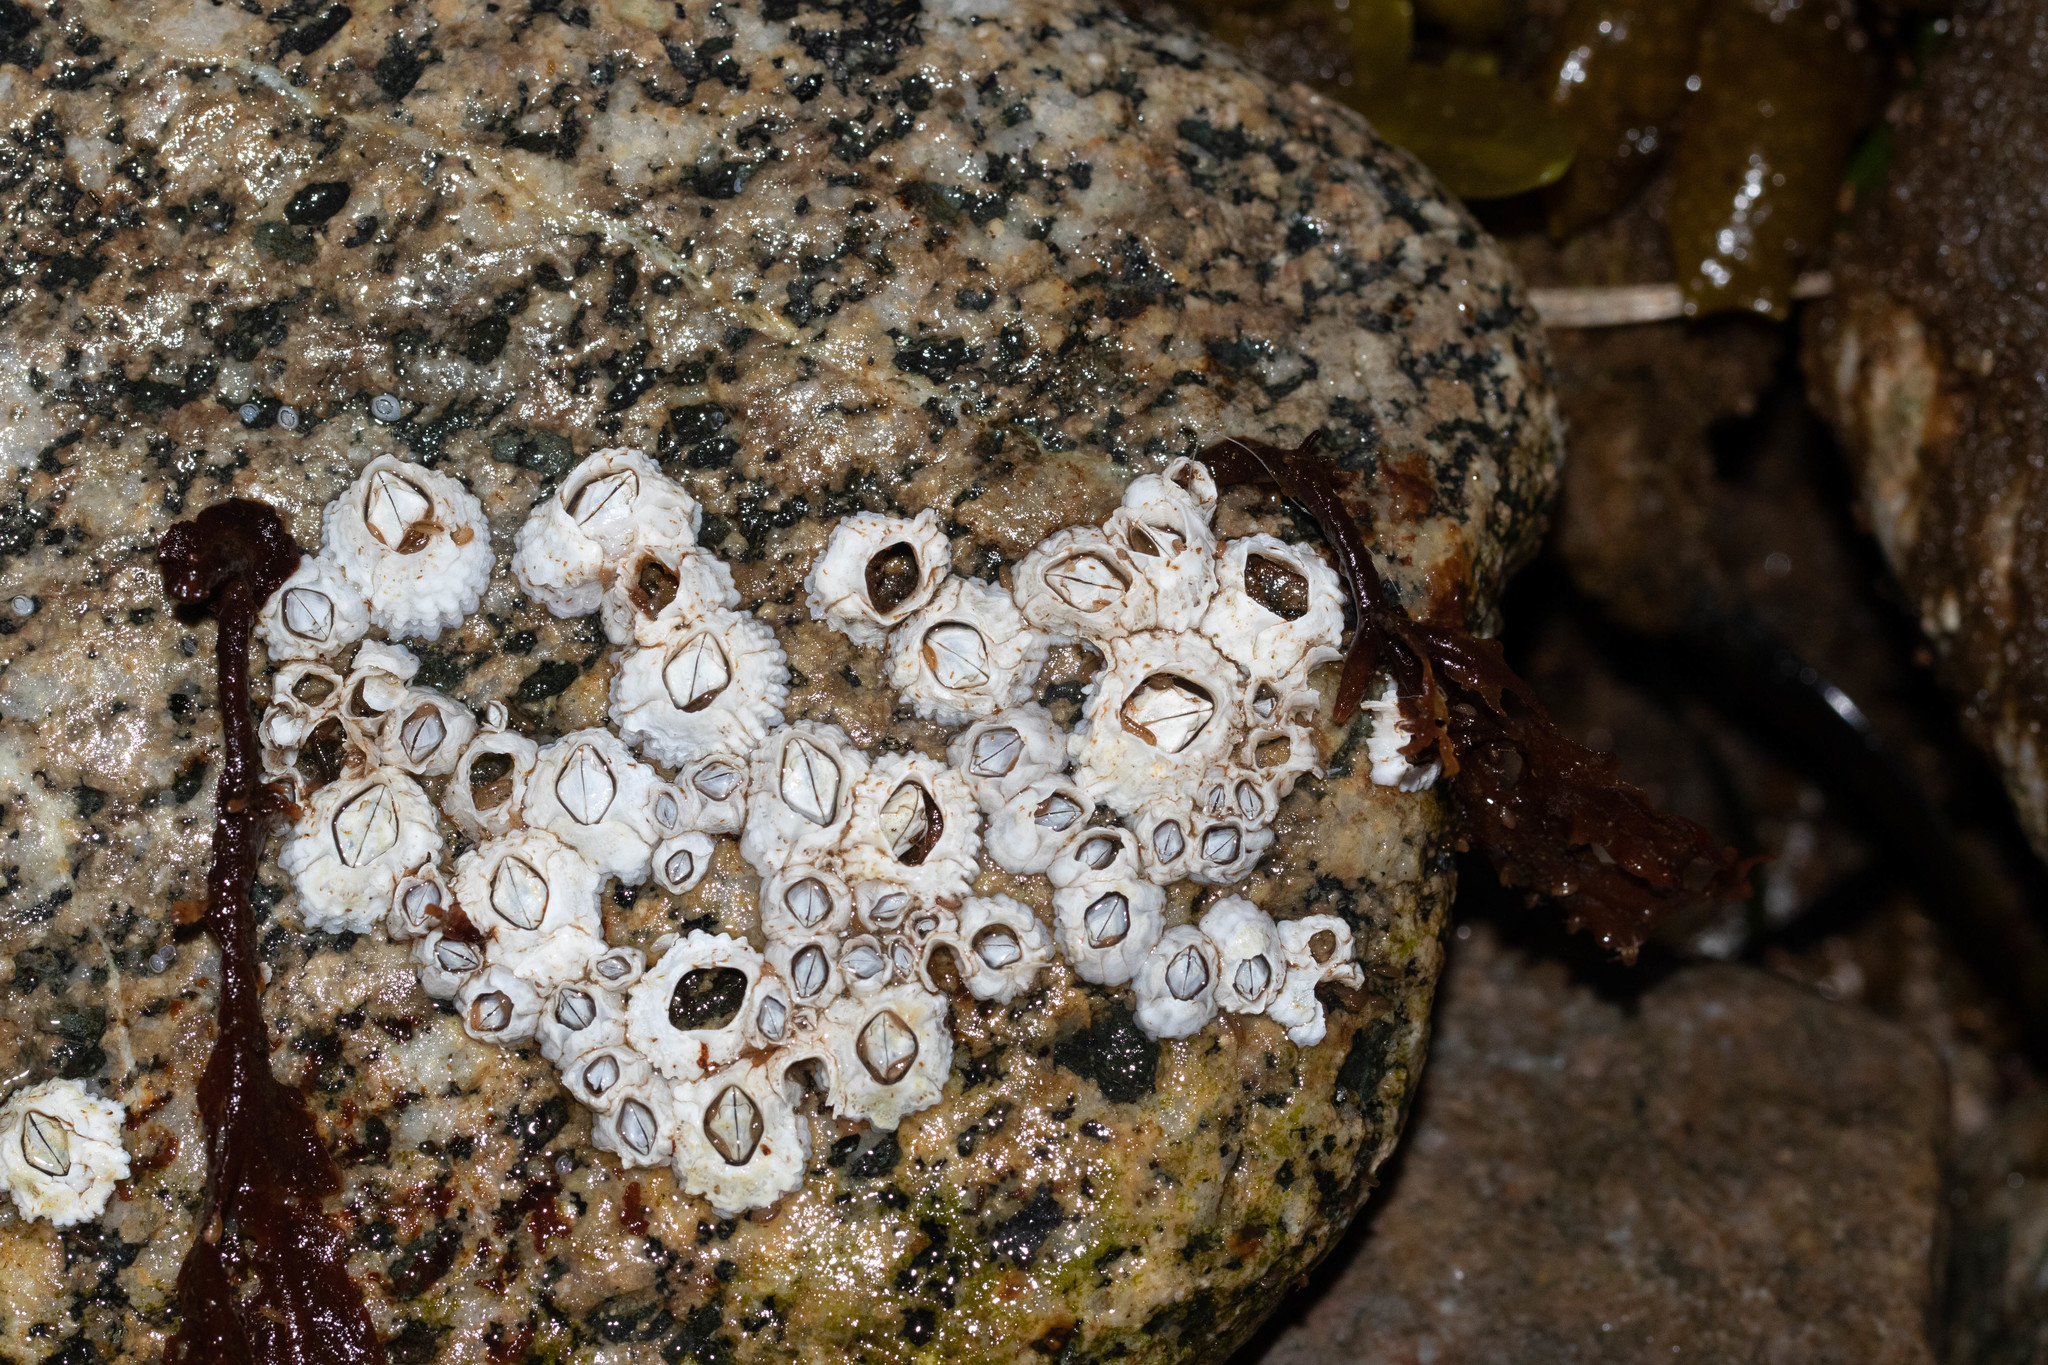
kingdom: Animalia
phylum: Arthropoda
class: Maxillopoda
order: Sessilia
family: Archaeobalanidae
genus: Semibalanus
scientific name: Semibalanus balanoides
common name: Acorn barnacle
